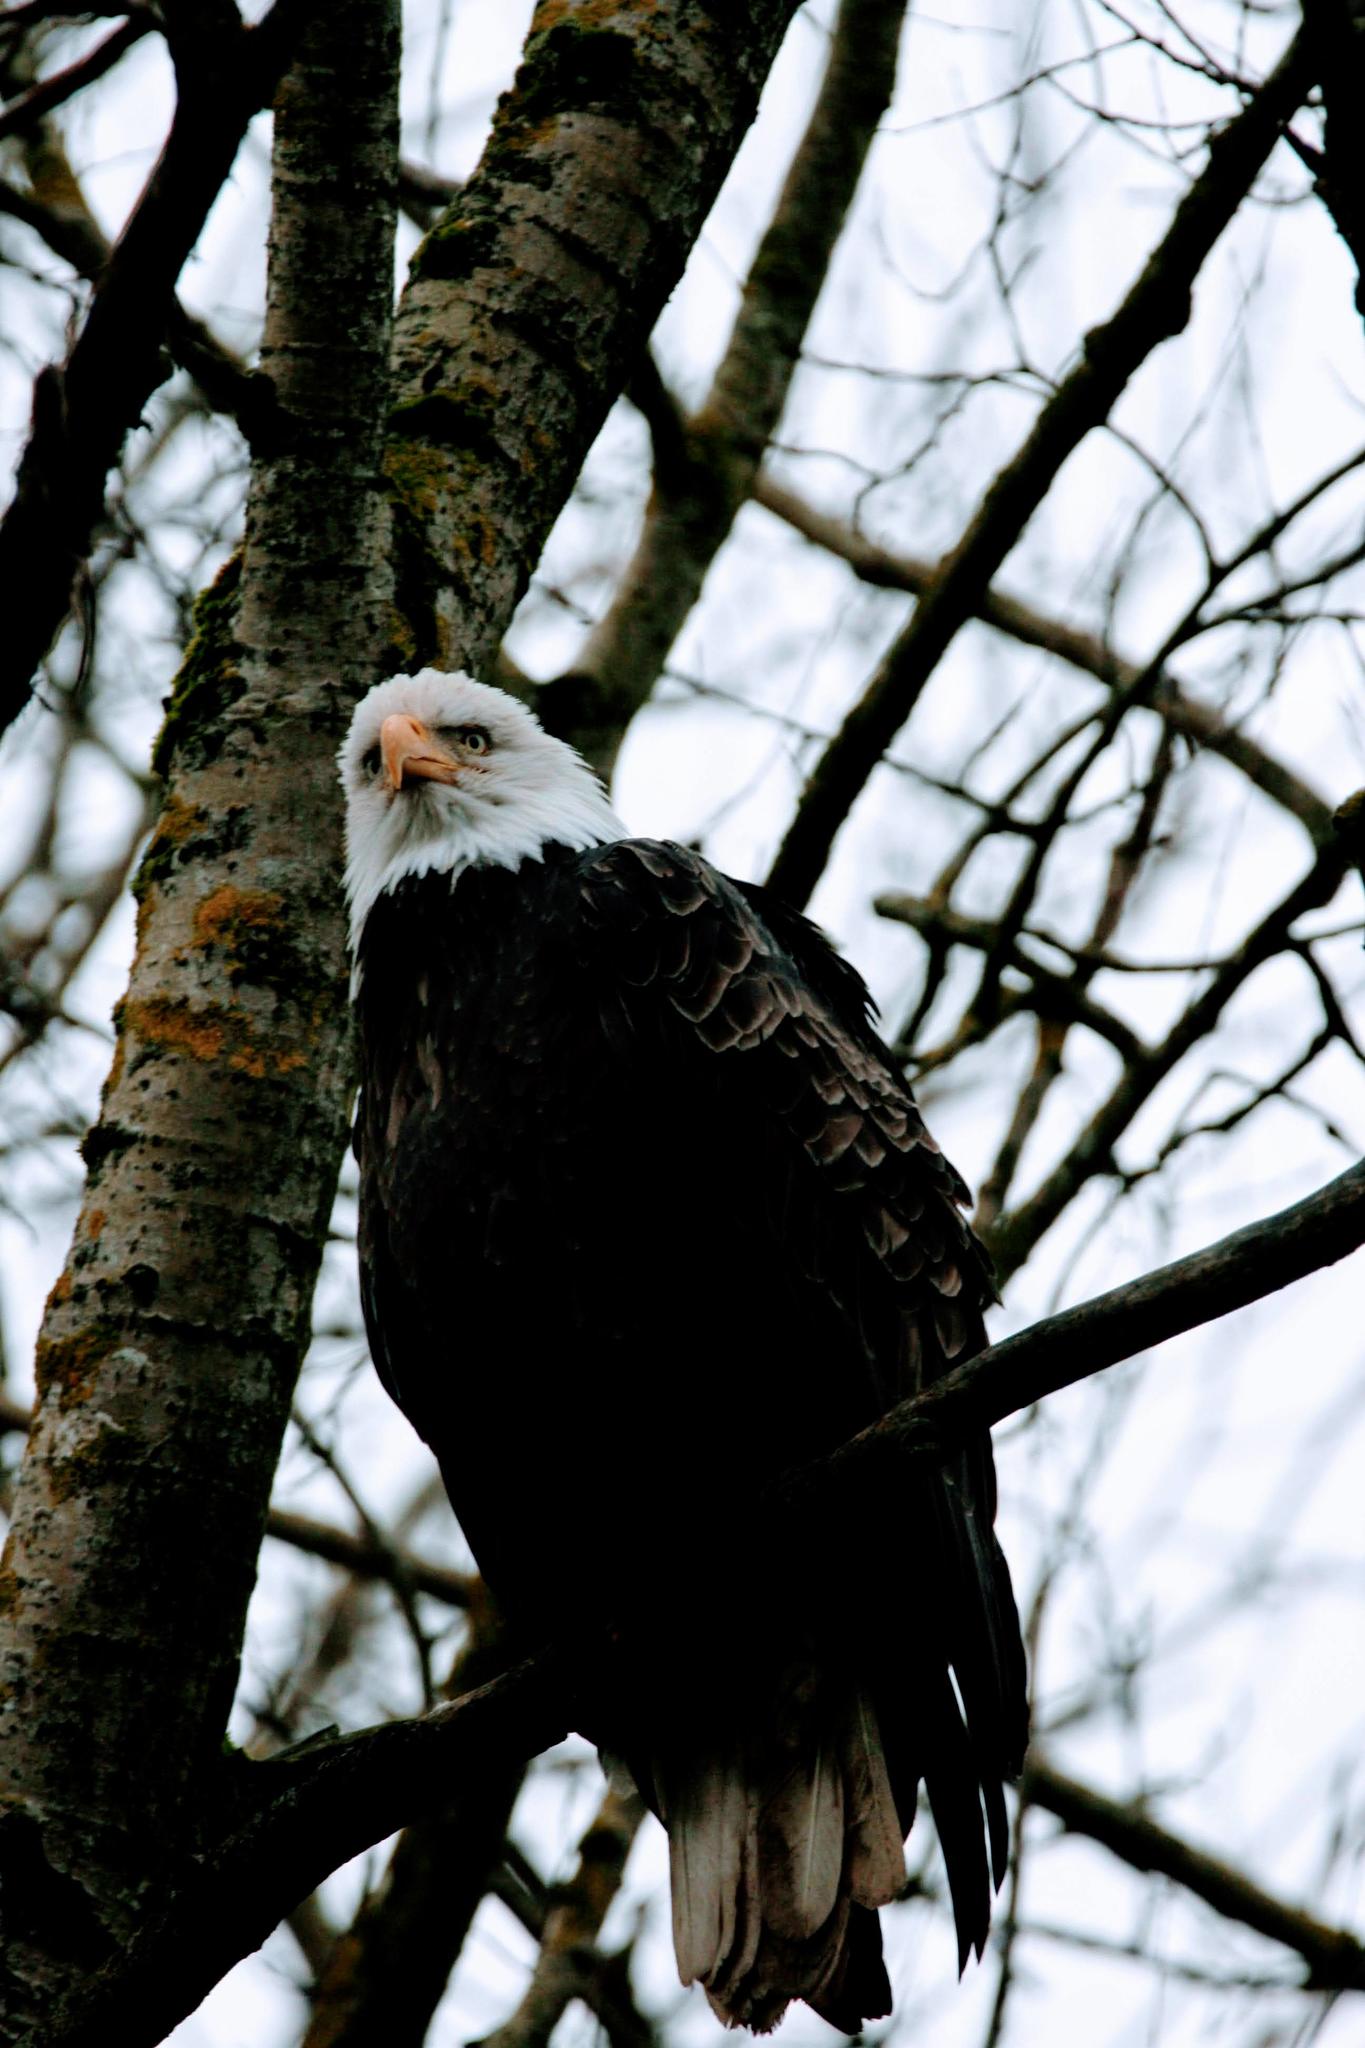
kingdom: Animalia
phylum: Chordata
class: Aves
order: Accipitriformes
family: Accipitridae
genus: Haliaeetus
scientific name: Haliaeetus leucocephalus
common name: Bald eagle
